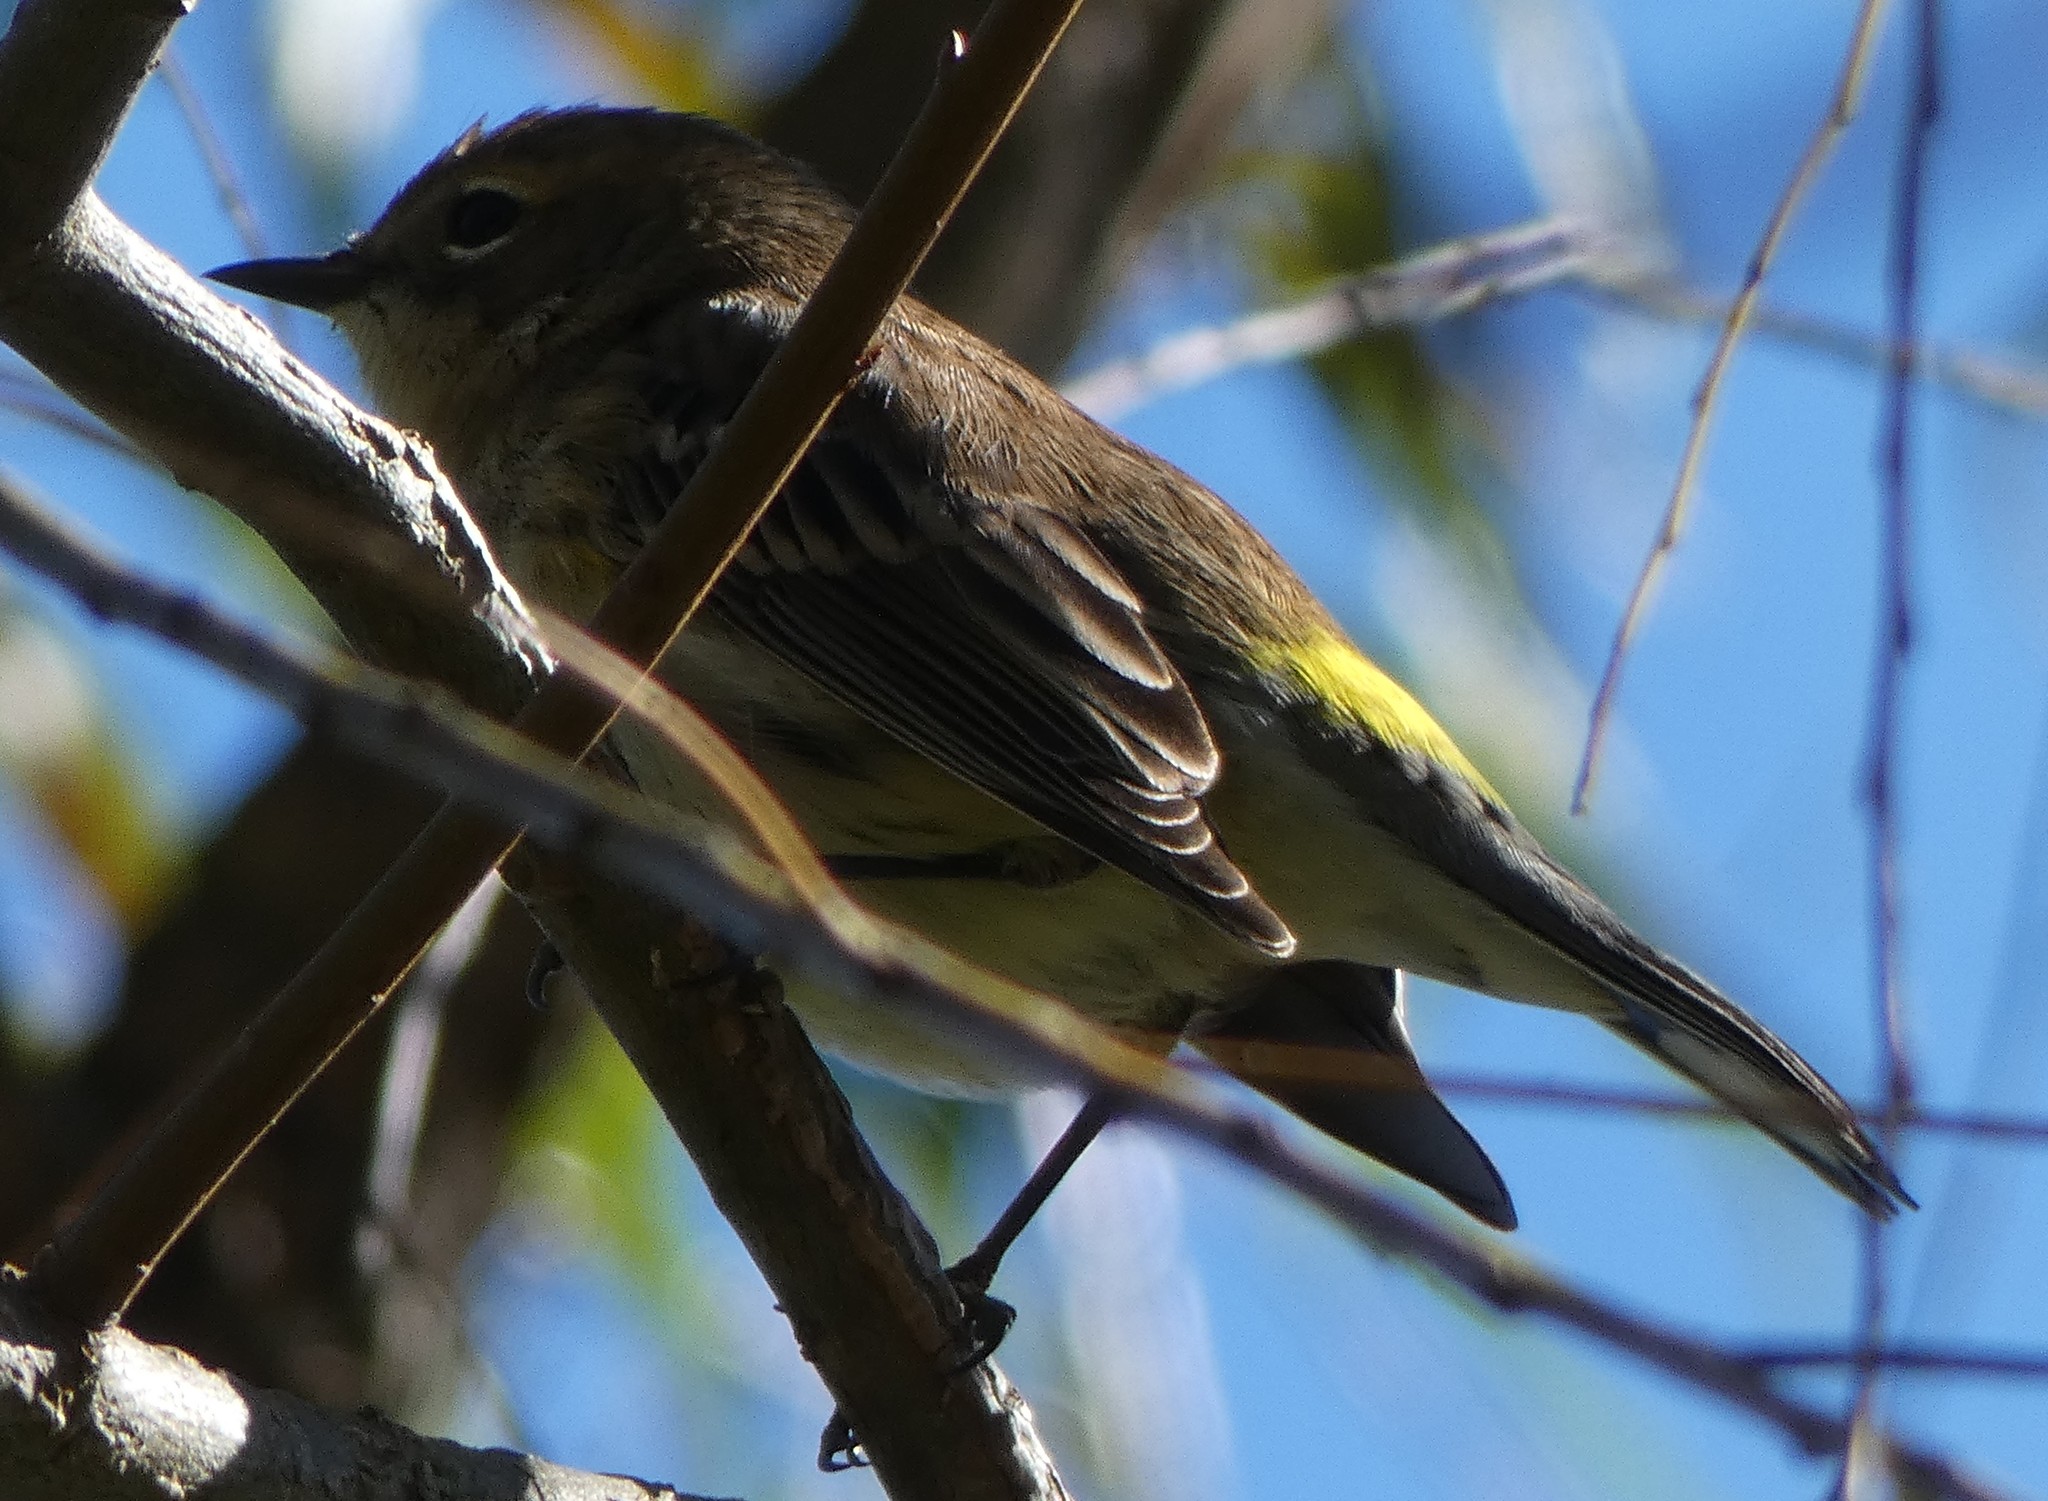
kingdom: Animalia
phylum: Chordata
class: Aves
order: Passeriformes
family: Parulidae
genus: Setophaga
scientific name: Setophaga coronata
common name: Myrtle warbler
